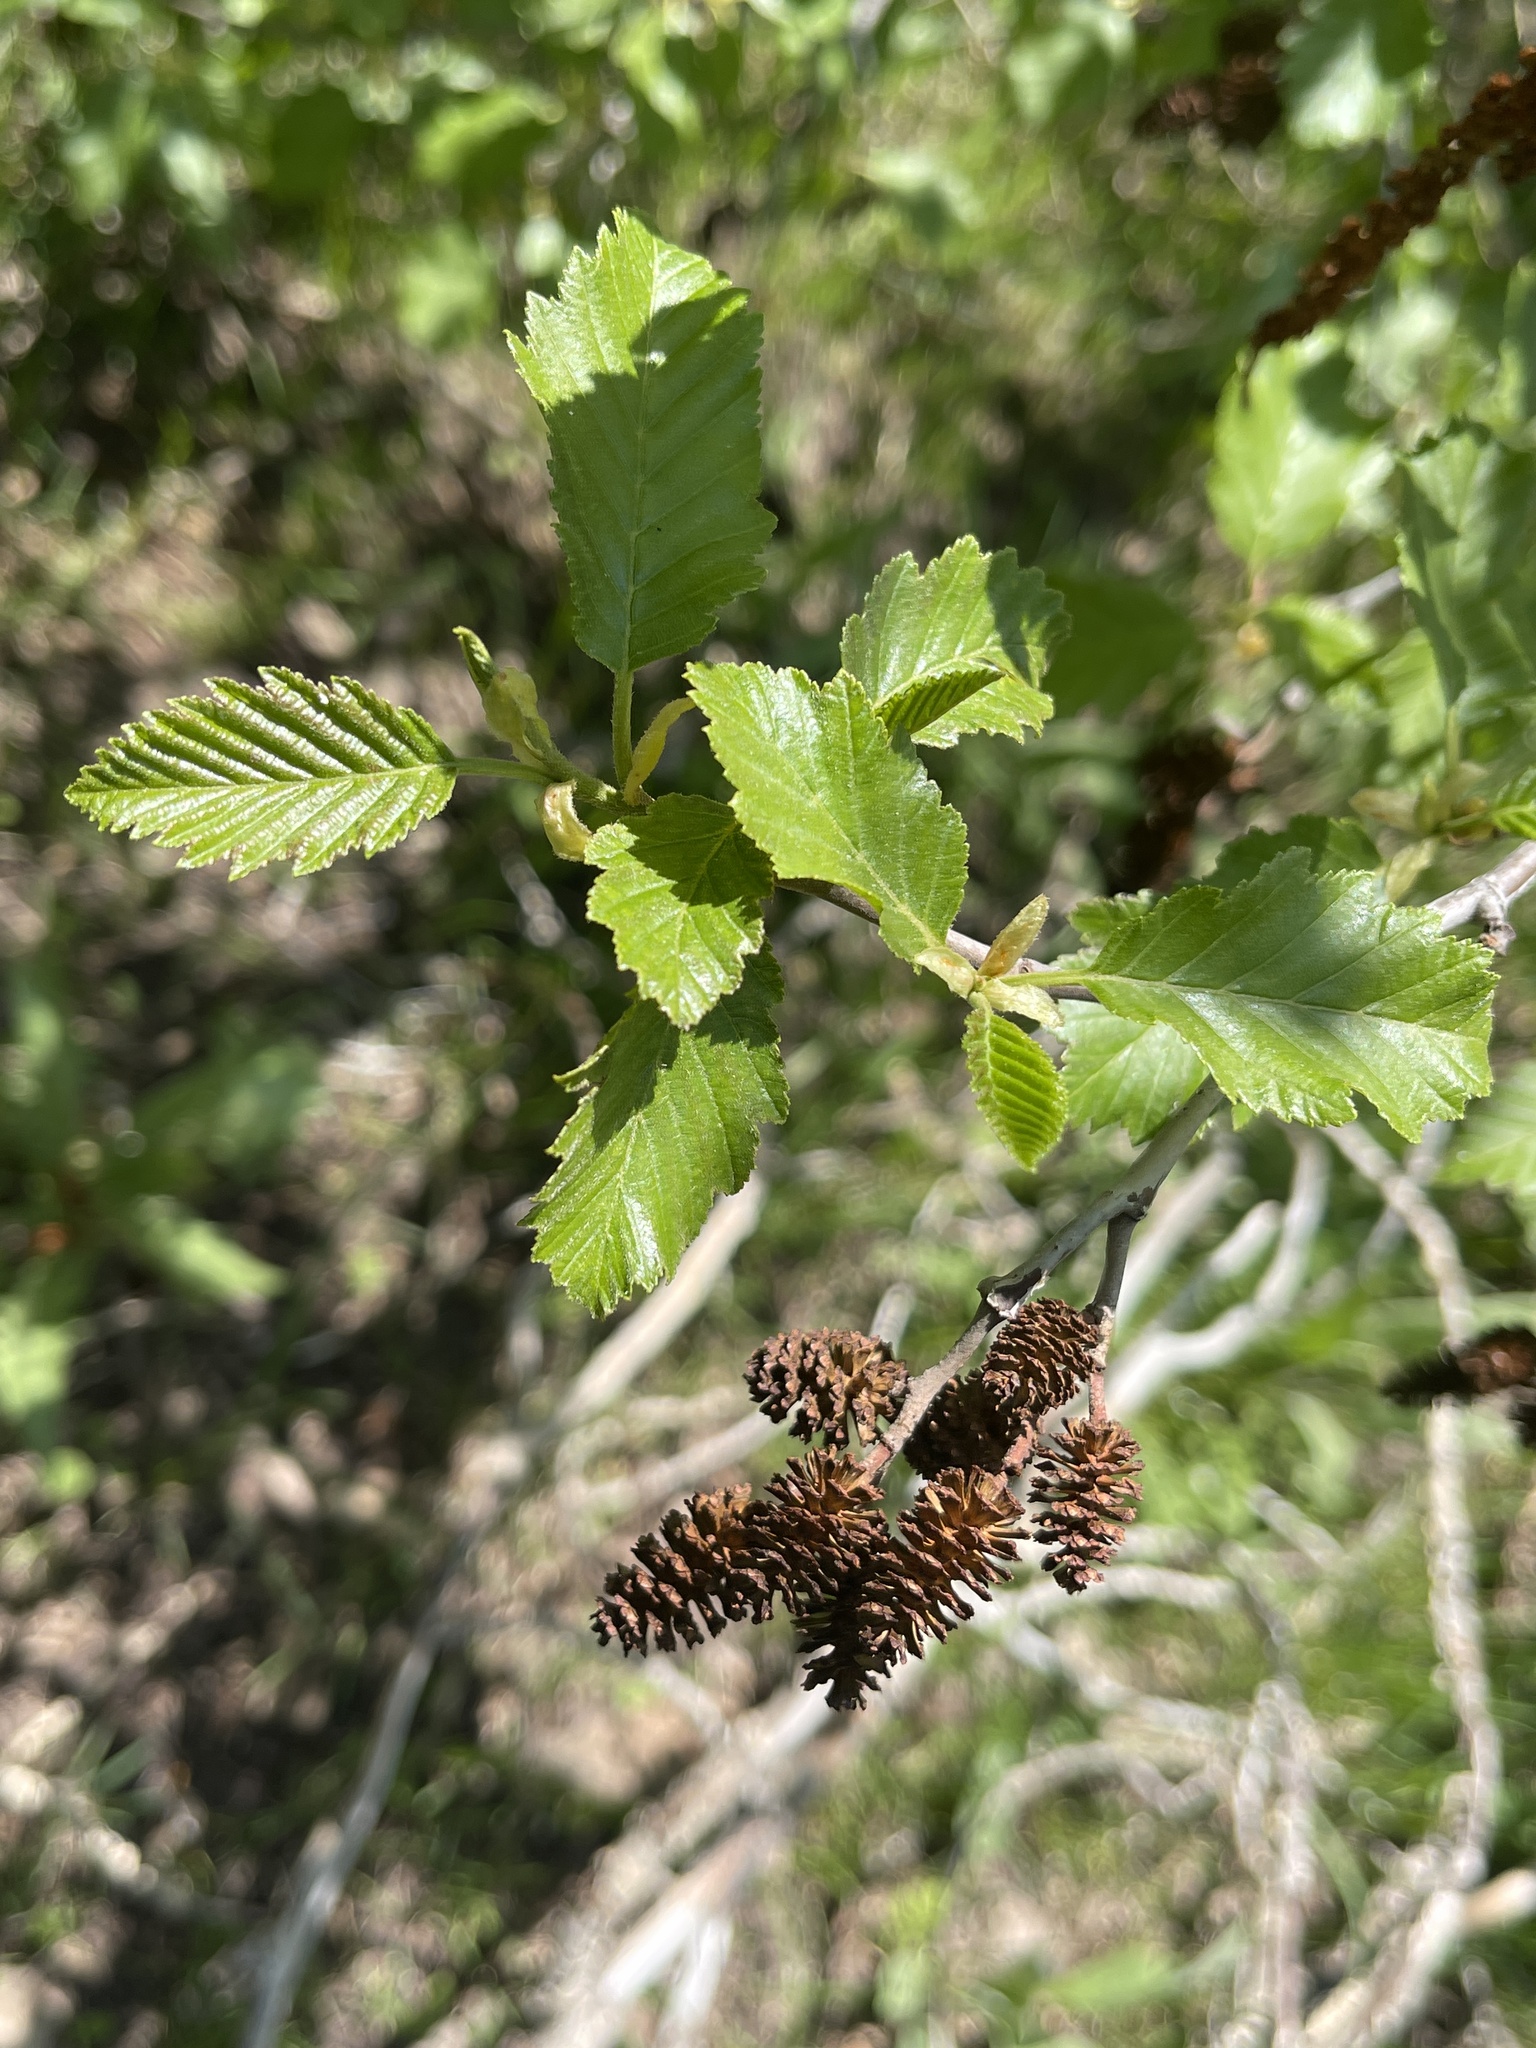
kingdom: Plantae
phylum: Tracheophyta
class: Magnoliopsida
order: Fagales
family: Betulaceae
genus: Alnus
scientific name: Alnus incana
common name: Grey alder
